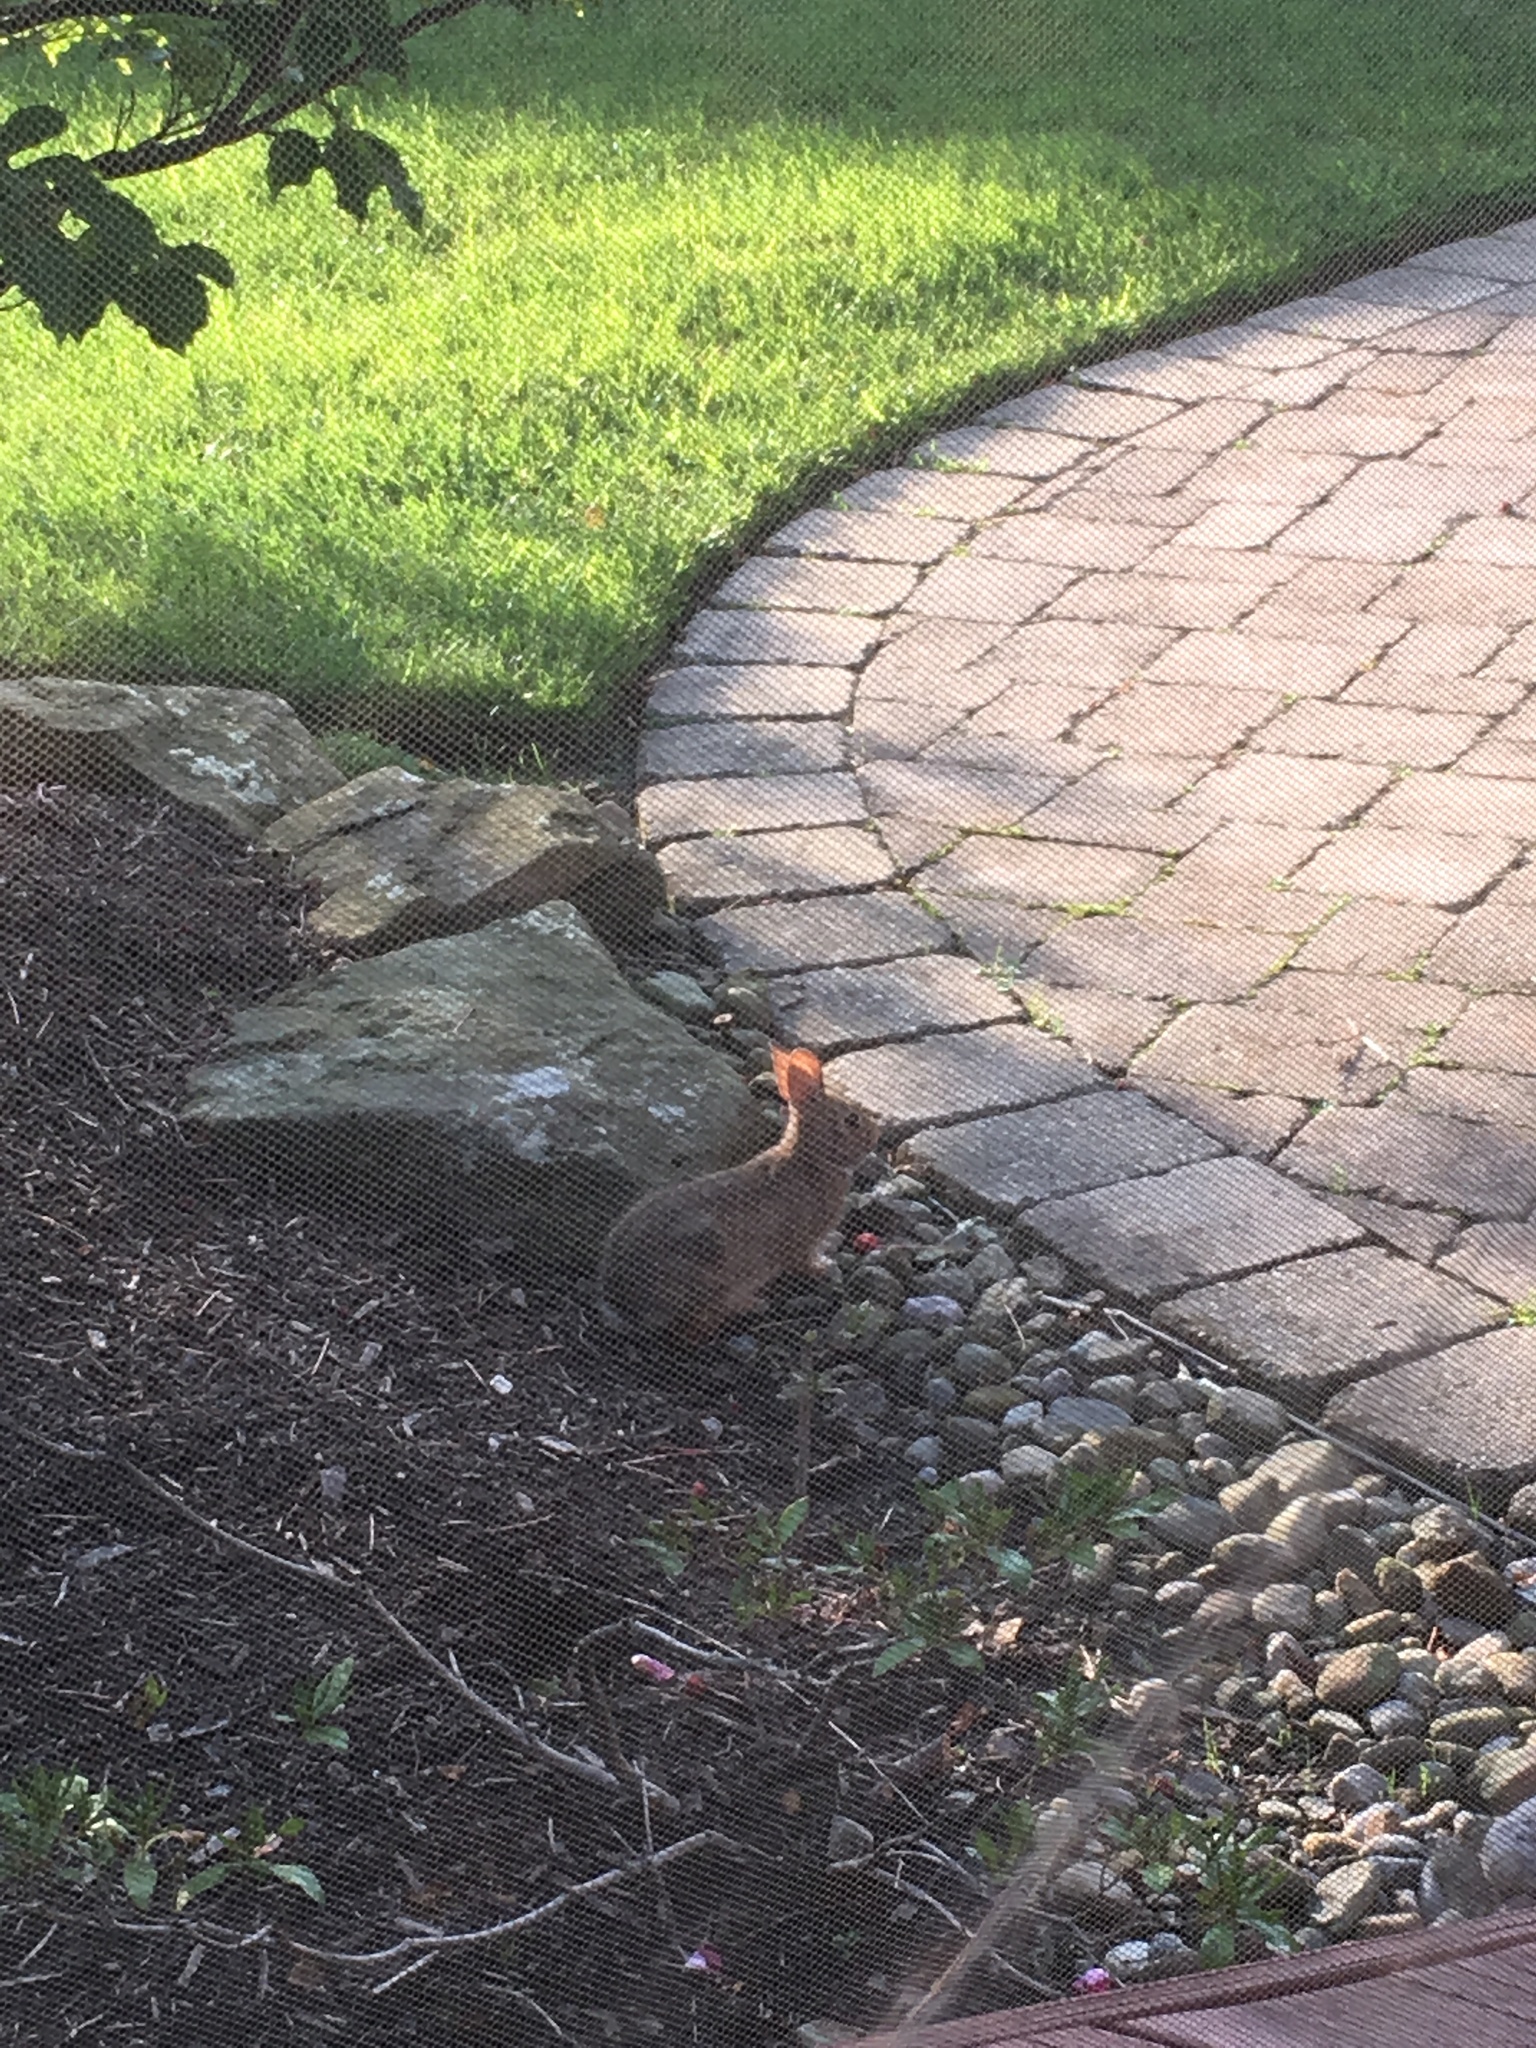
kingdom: Animalia
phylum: Chordata
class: Mammalia
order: Lagomorpha
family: Leporidae
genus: Sylvilagus
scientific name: Sylvilagus floridanus
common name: Eastern cottontail
